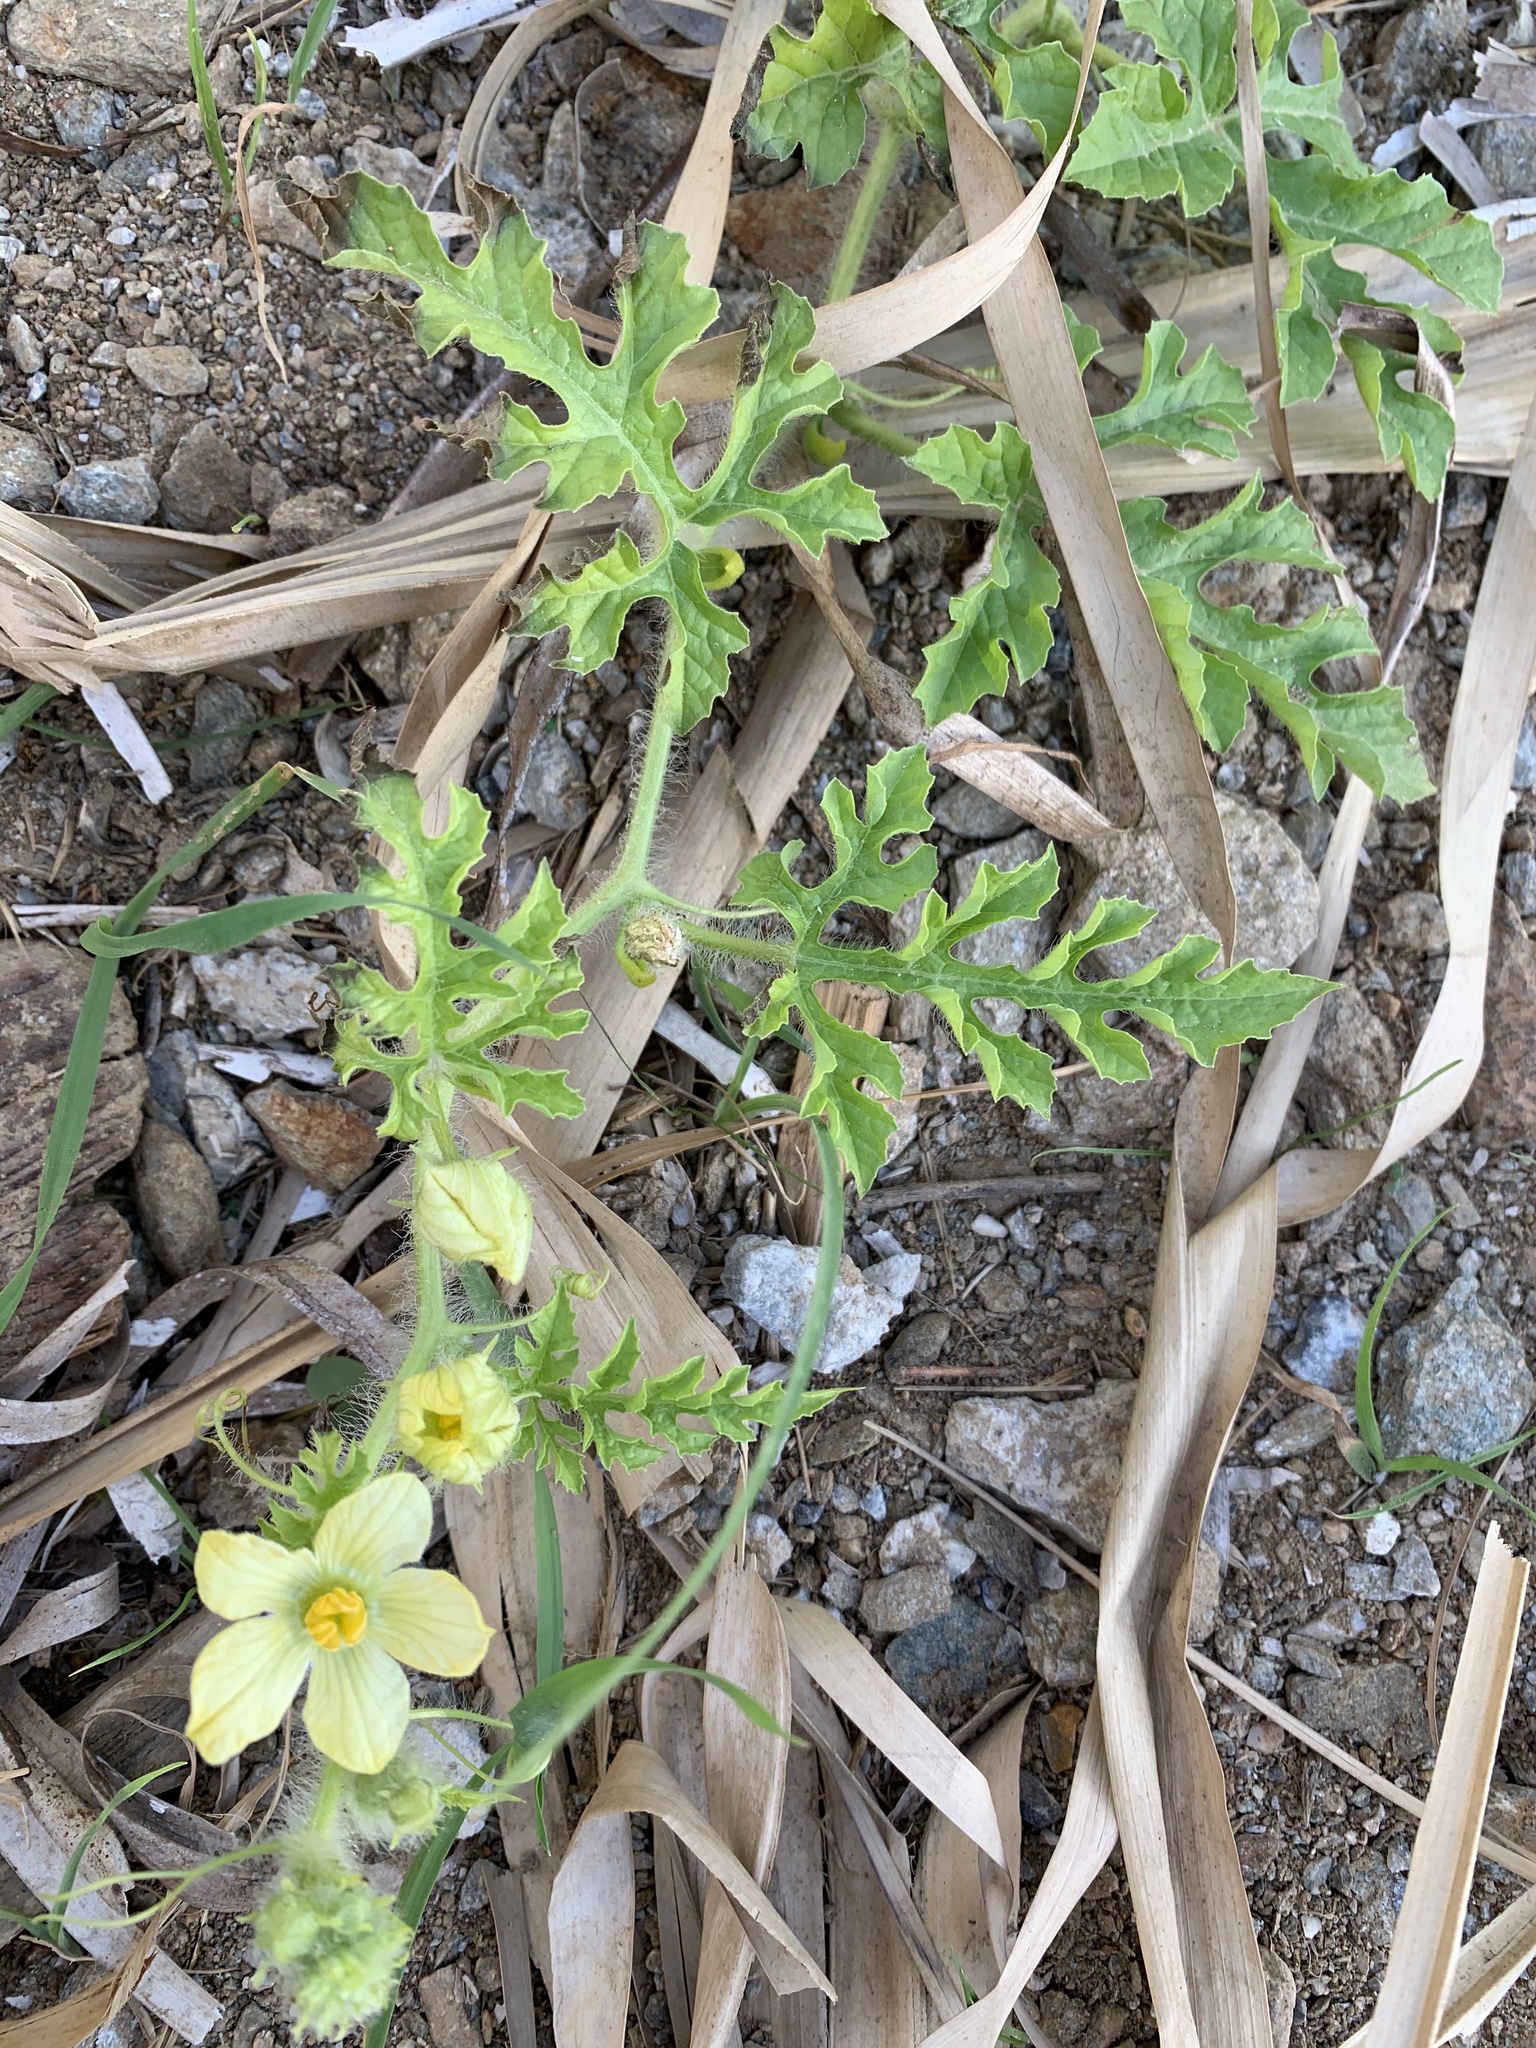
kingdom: Plantae
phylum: Tracheophyta
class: Magnoliopsida
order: Cucurbitales
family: Cucurbitaceae
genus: Citrullus
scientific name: Citrullus lanatus
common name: Watermelon
